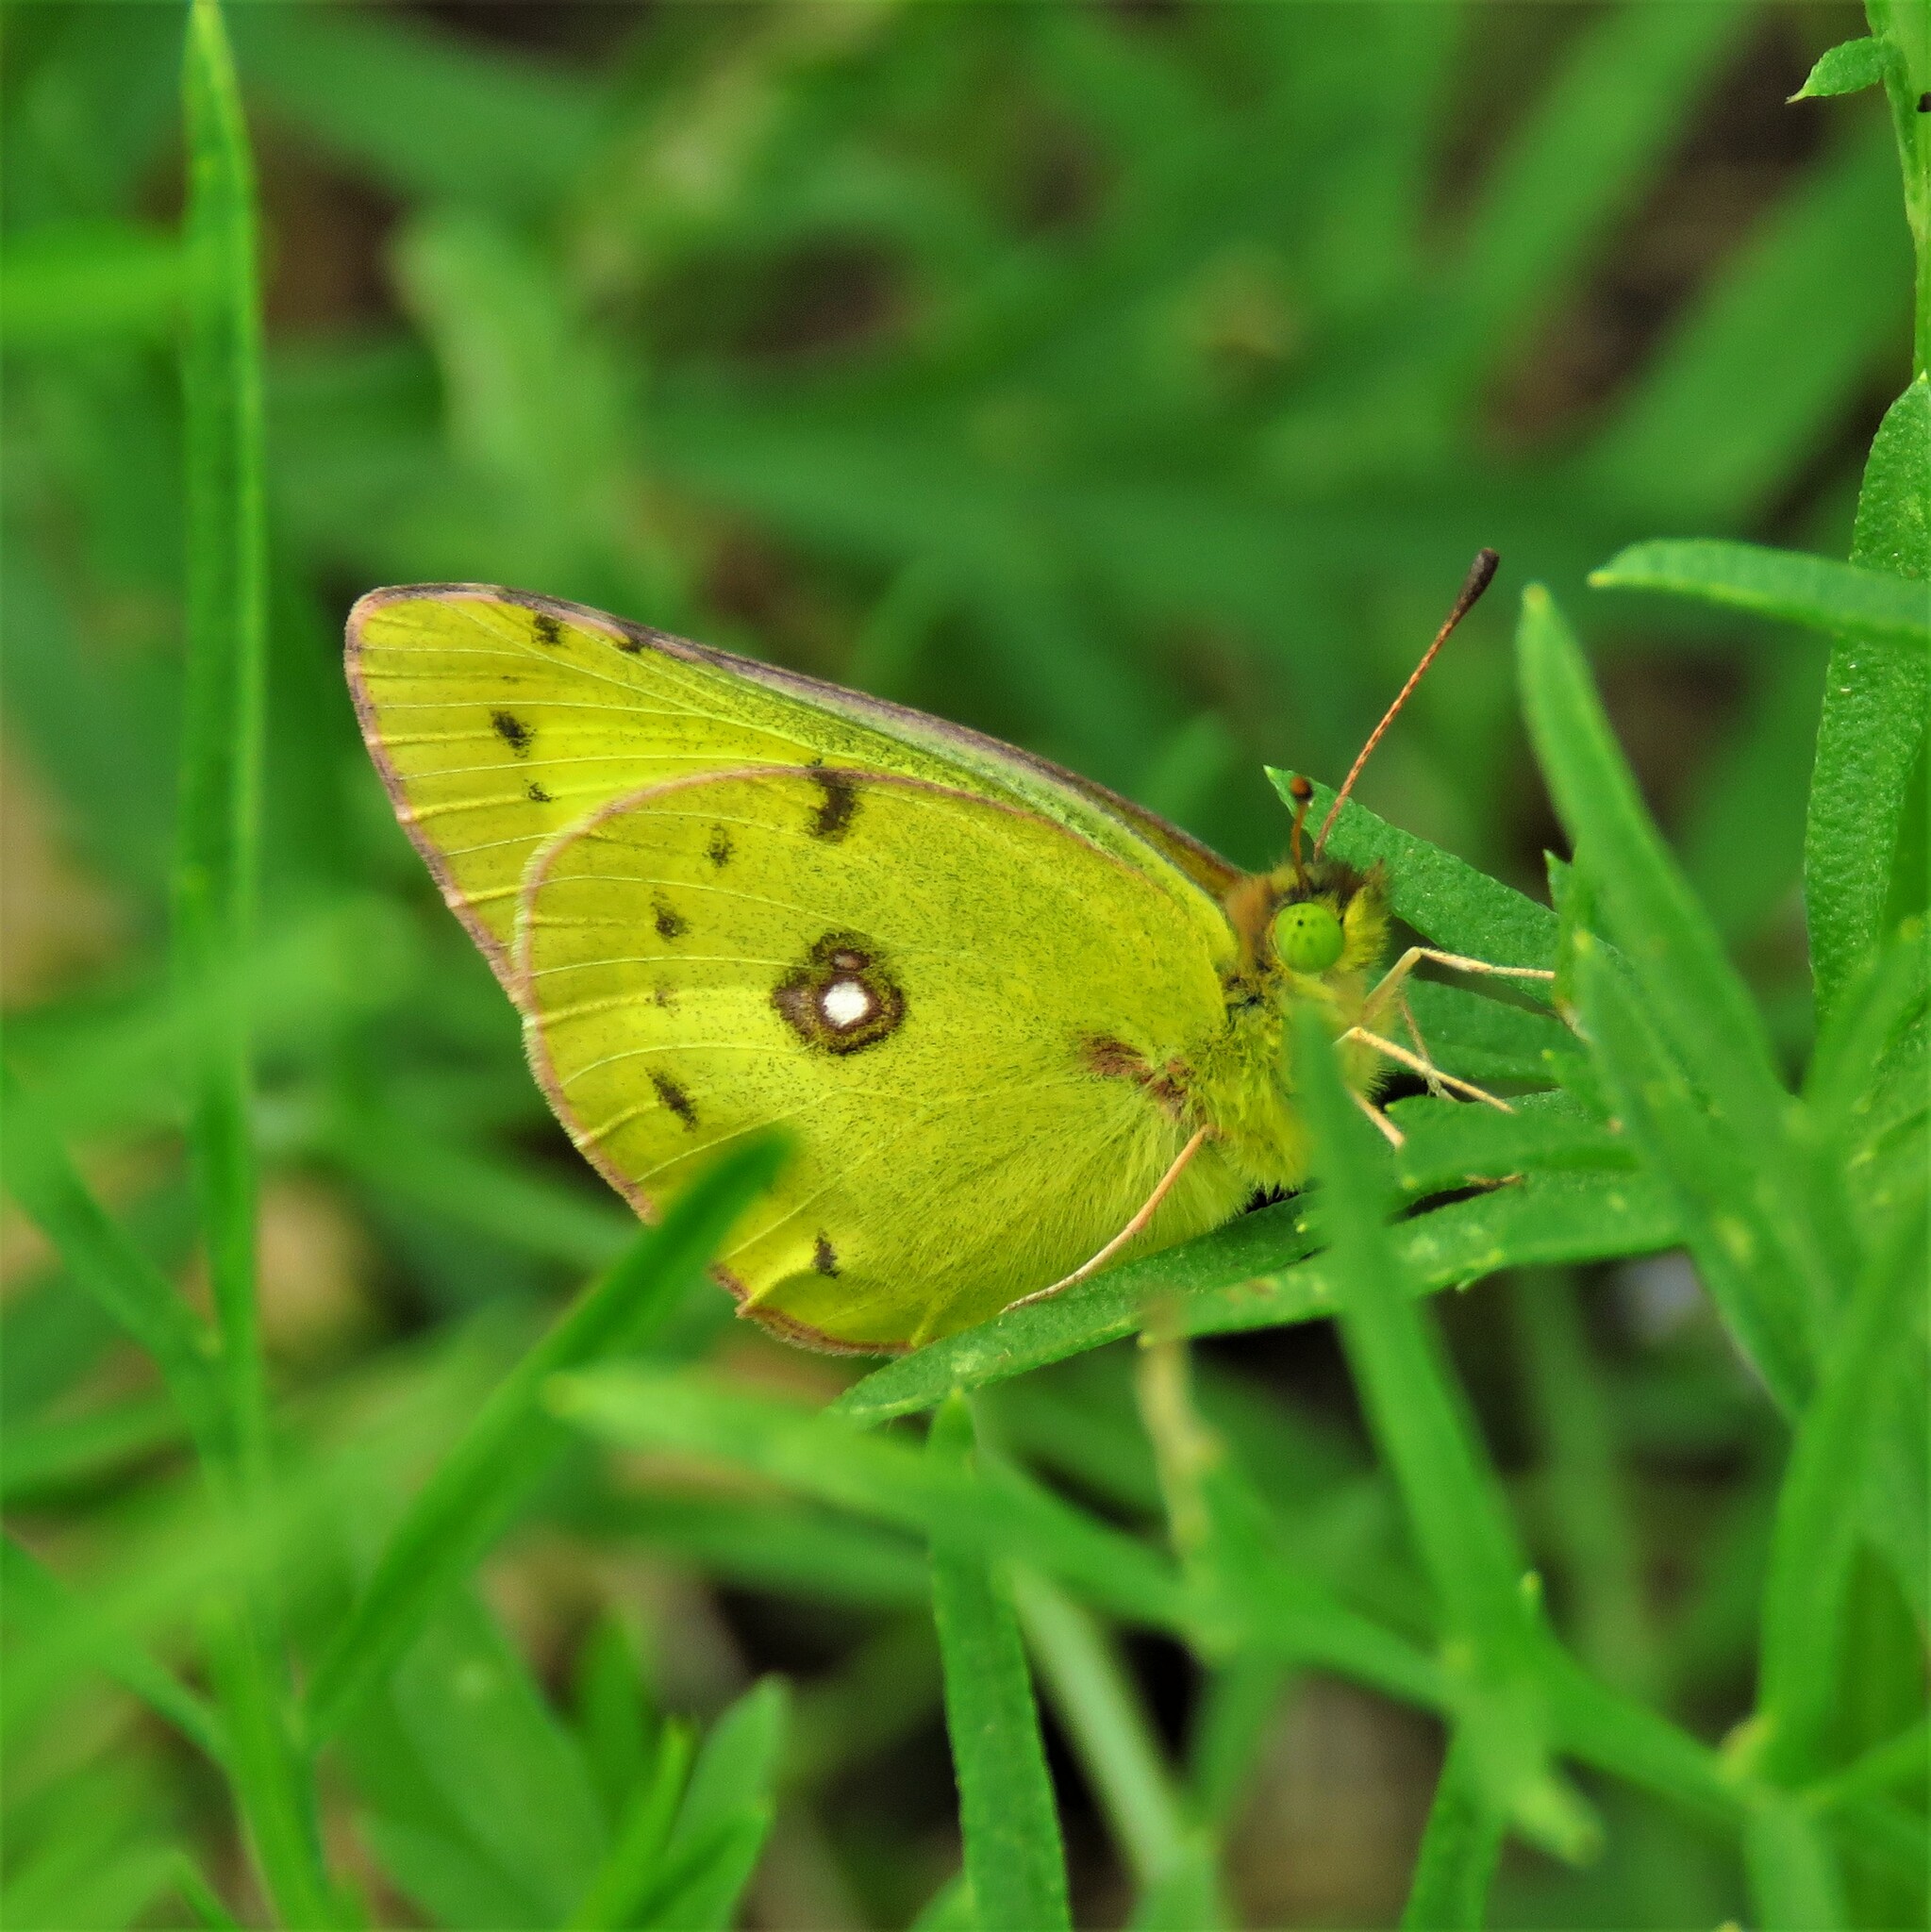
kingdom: Animalia
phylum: Arthropoda
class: Insecta
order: Lepidoptera
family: Pieridae
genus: Colias
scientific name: Colias eurytheme
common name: Alfalfa butterfly
